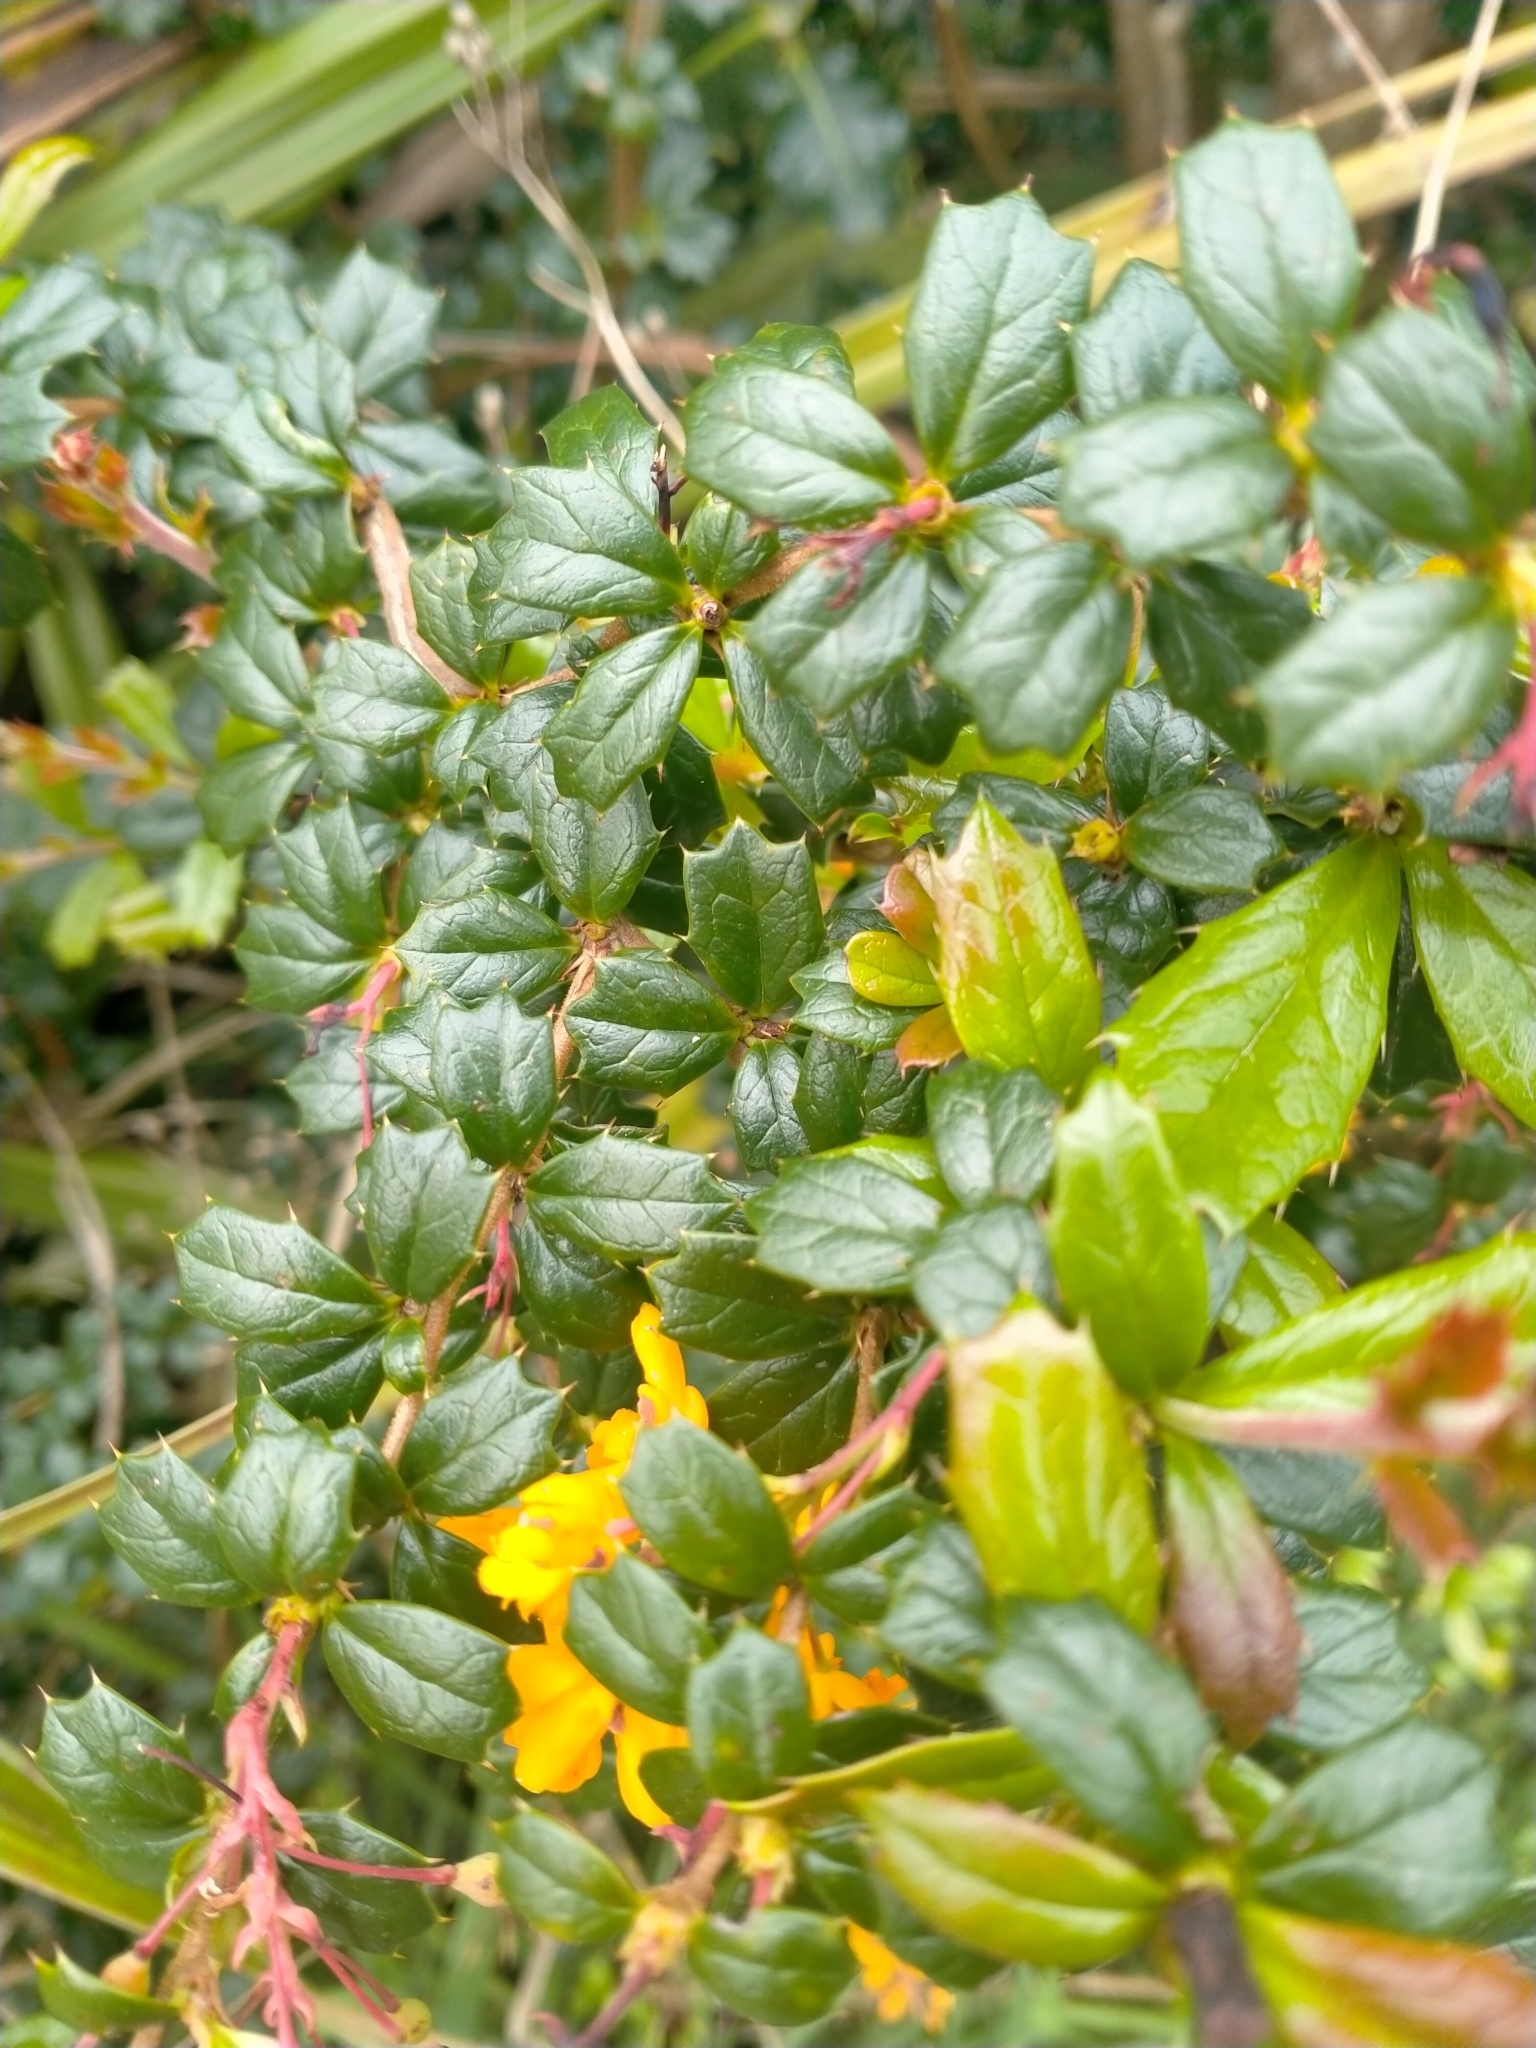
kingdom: Plantae
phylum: Tracheophyta
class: Magnoliopsida
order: Ranunculales
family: Berberidaceae
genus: Berberis
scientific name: Berberis darwinii
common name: Darwin's barberry
